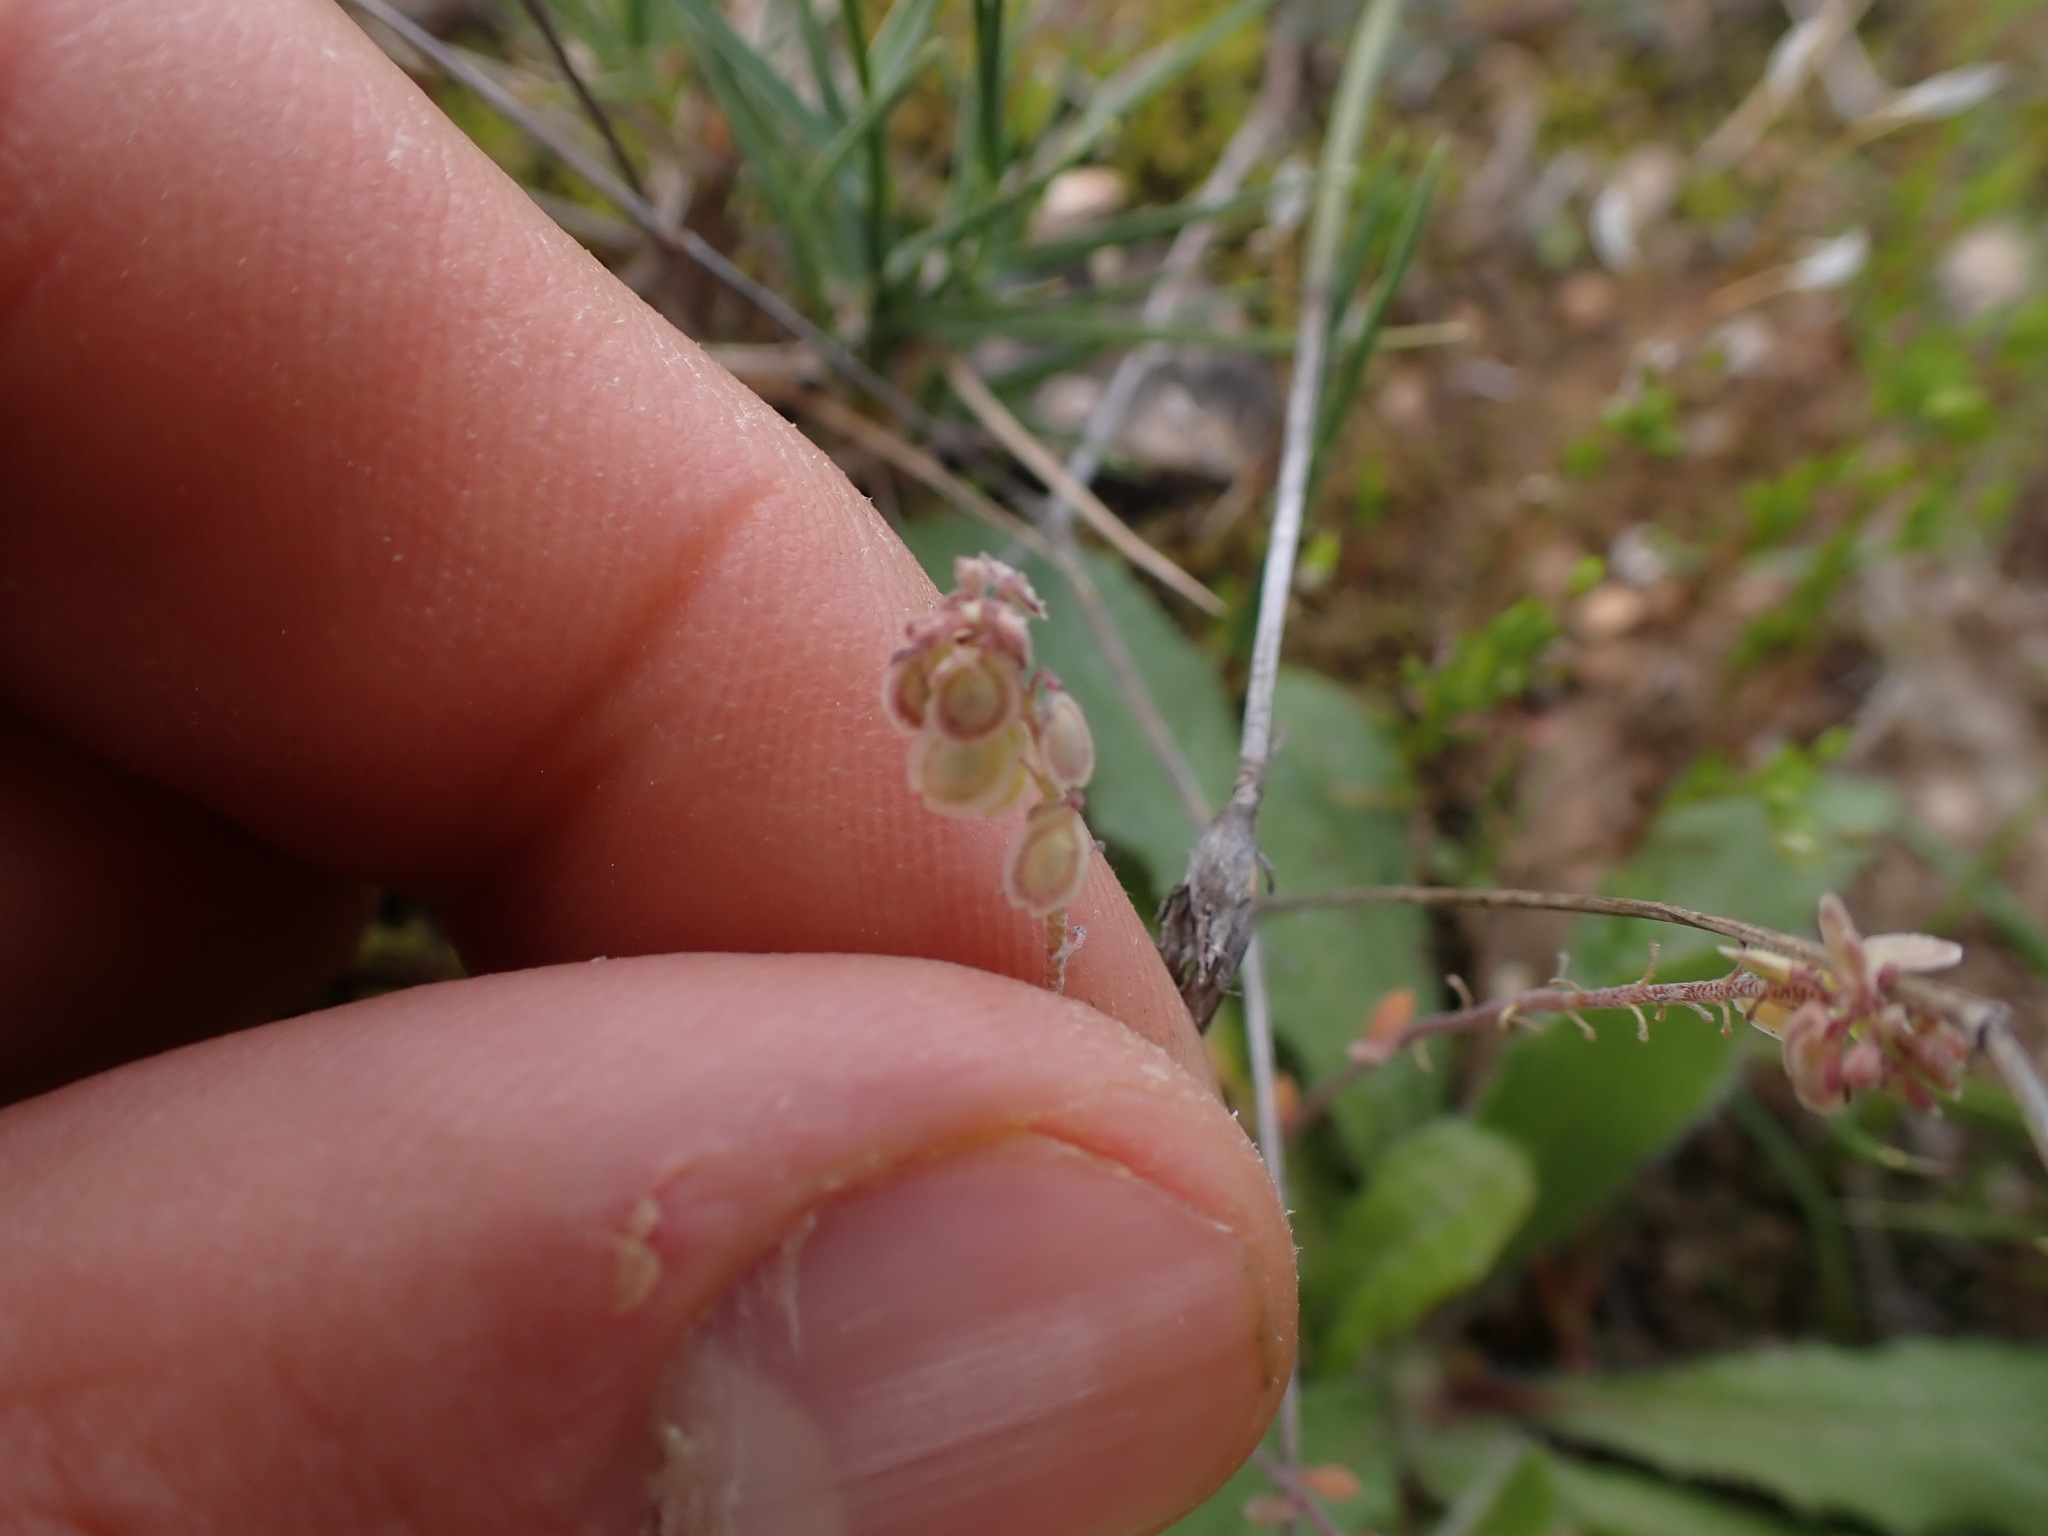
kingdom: Plantae
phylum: Tracheophyta
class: Magnoliopsida
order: Brassicales
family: Brassicaceae
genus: Clypeola
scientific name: Clypeola jonthlaspi
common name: Disk cress
